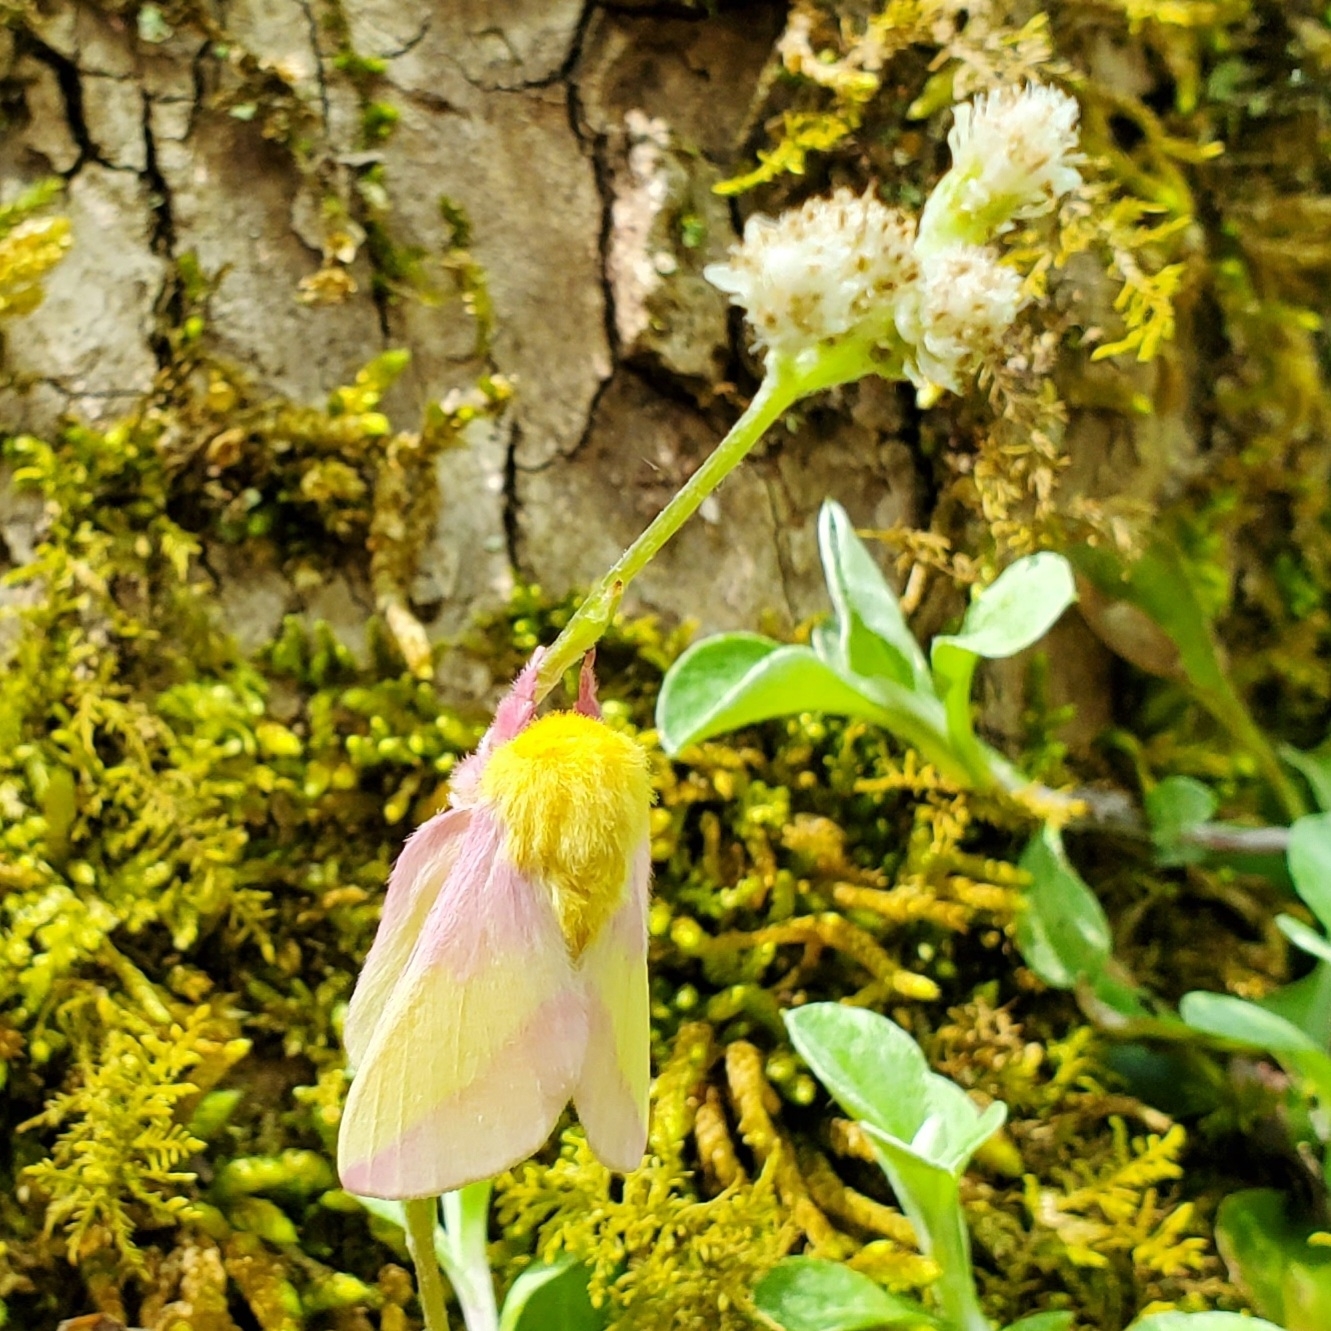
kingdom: Animalia
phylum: Arthropoda
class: Insecta
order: Lepidoptera
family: Saturniidae
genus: Dryocampa
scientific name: Dryocampa rubicunda
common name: Rosy maple moth
